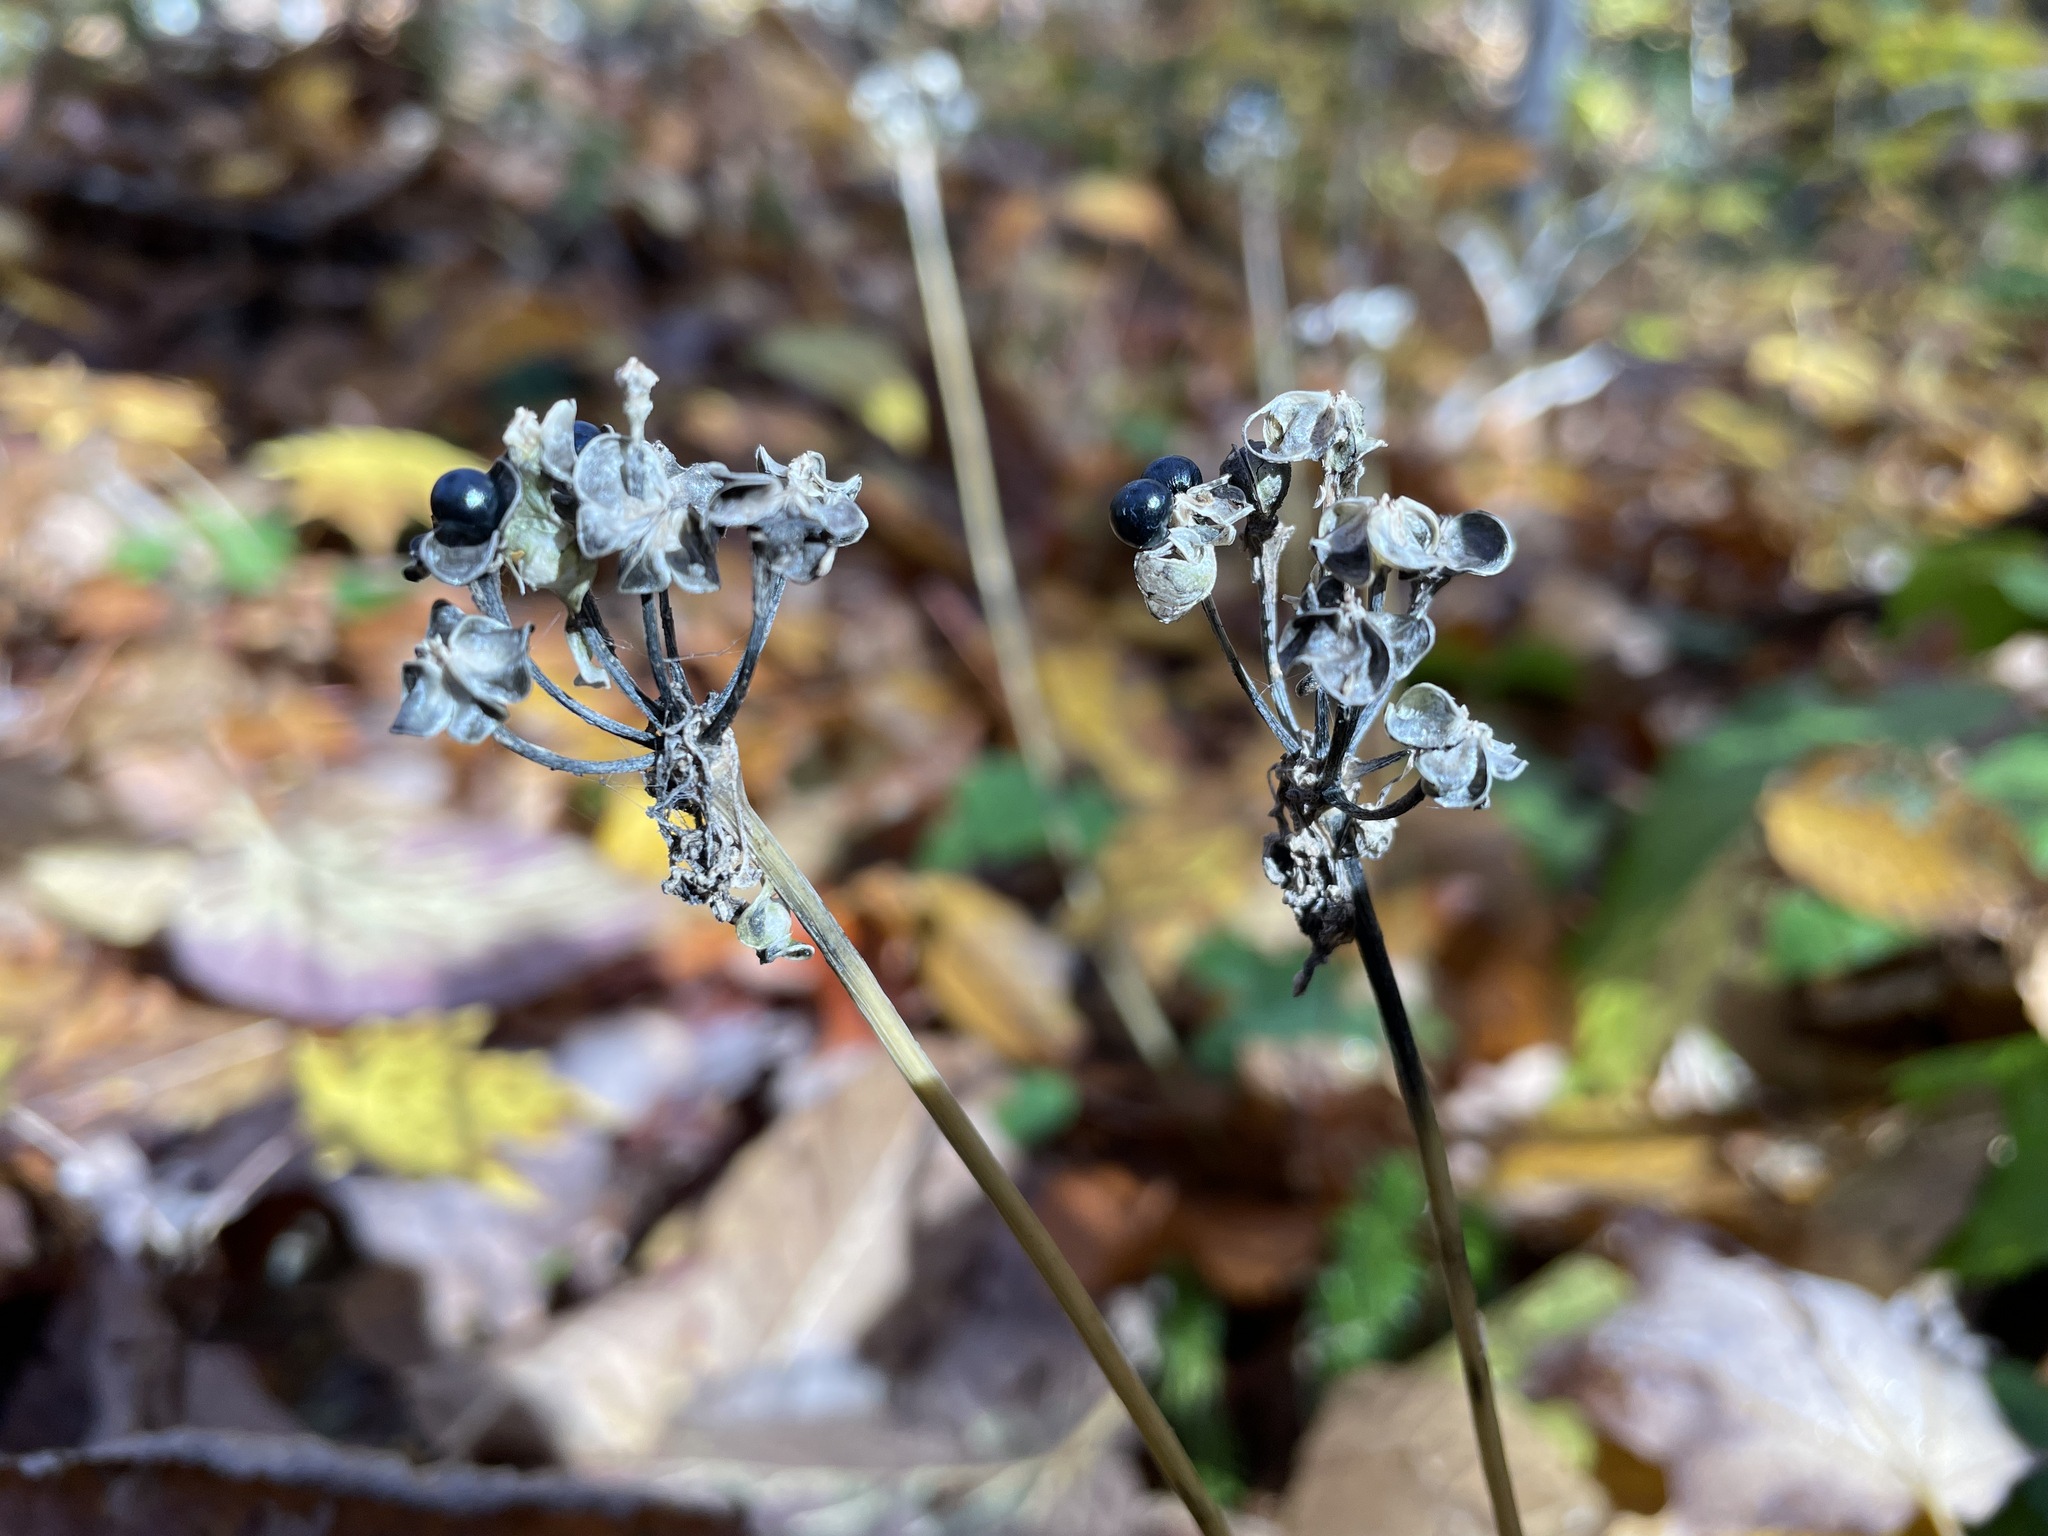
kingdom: Plantae
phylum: Tracheophyta
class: Liliopsida
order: Asparagales
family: Amaryllidaceae
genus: Allium
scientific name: Allium tricoccum
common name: Ramp
